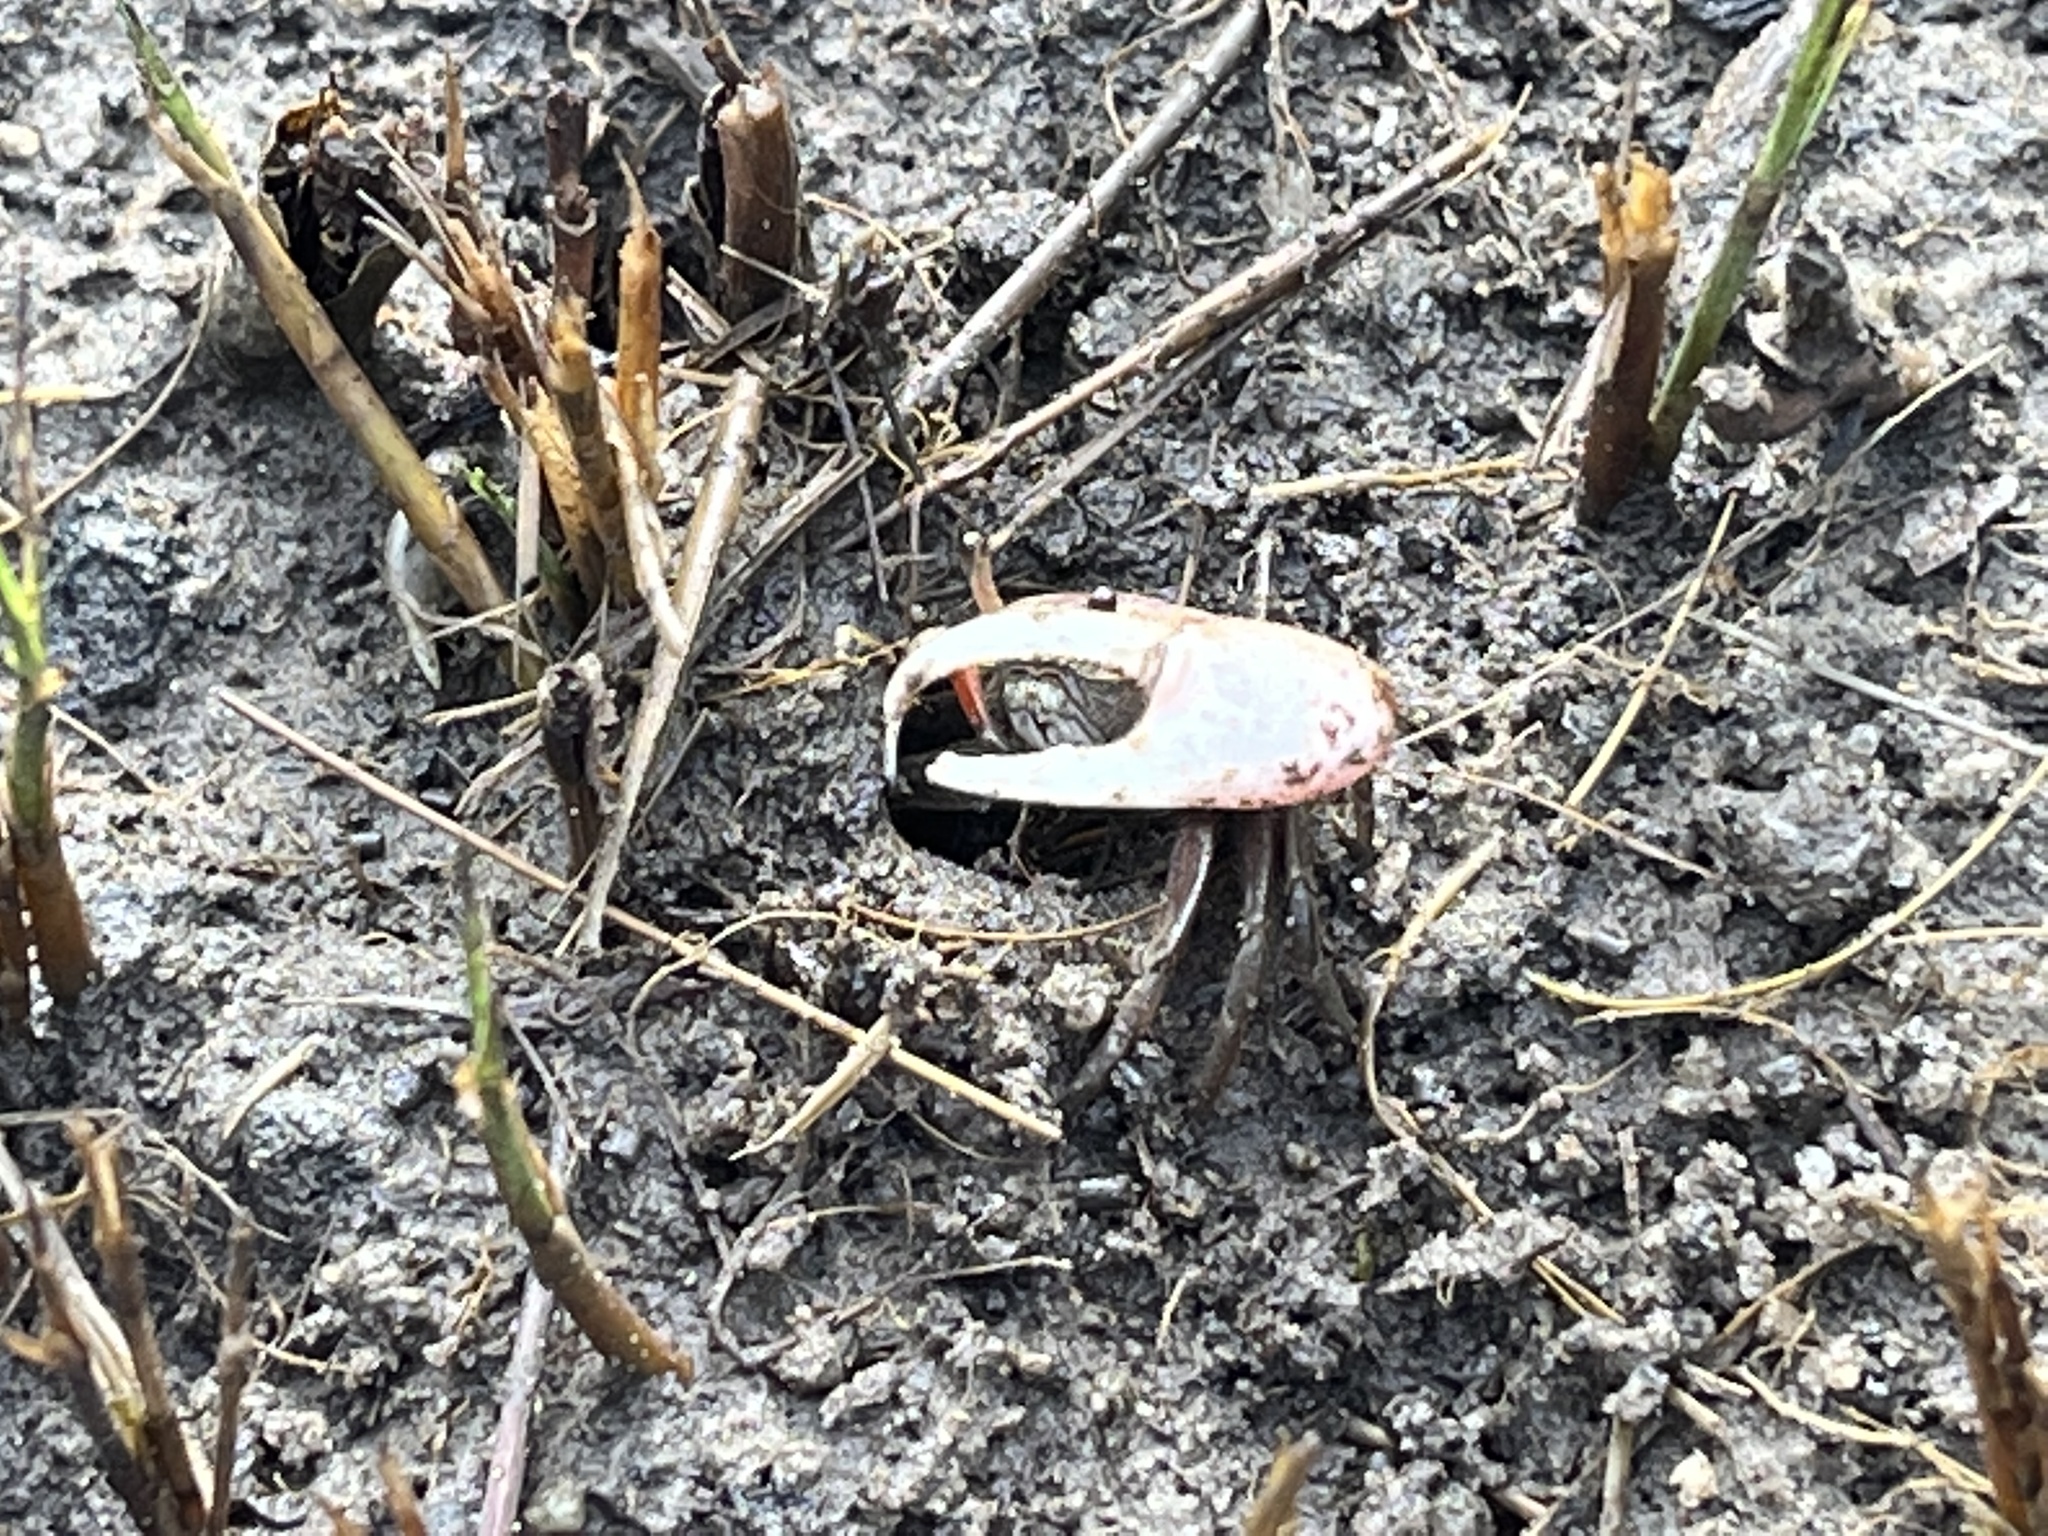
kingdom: Animalia
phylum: Arthropoda
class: Malacostraca
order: Decapoda
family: Ocypodidae
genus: Leptuca
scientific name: Leptuca pugilator
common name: Atlantic sand fiddler crab
